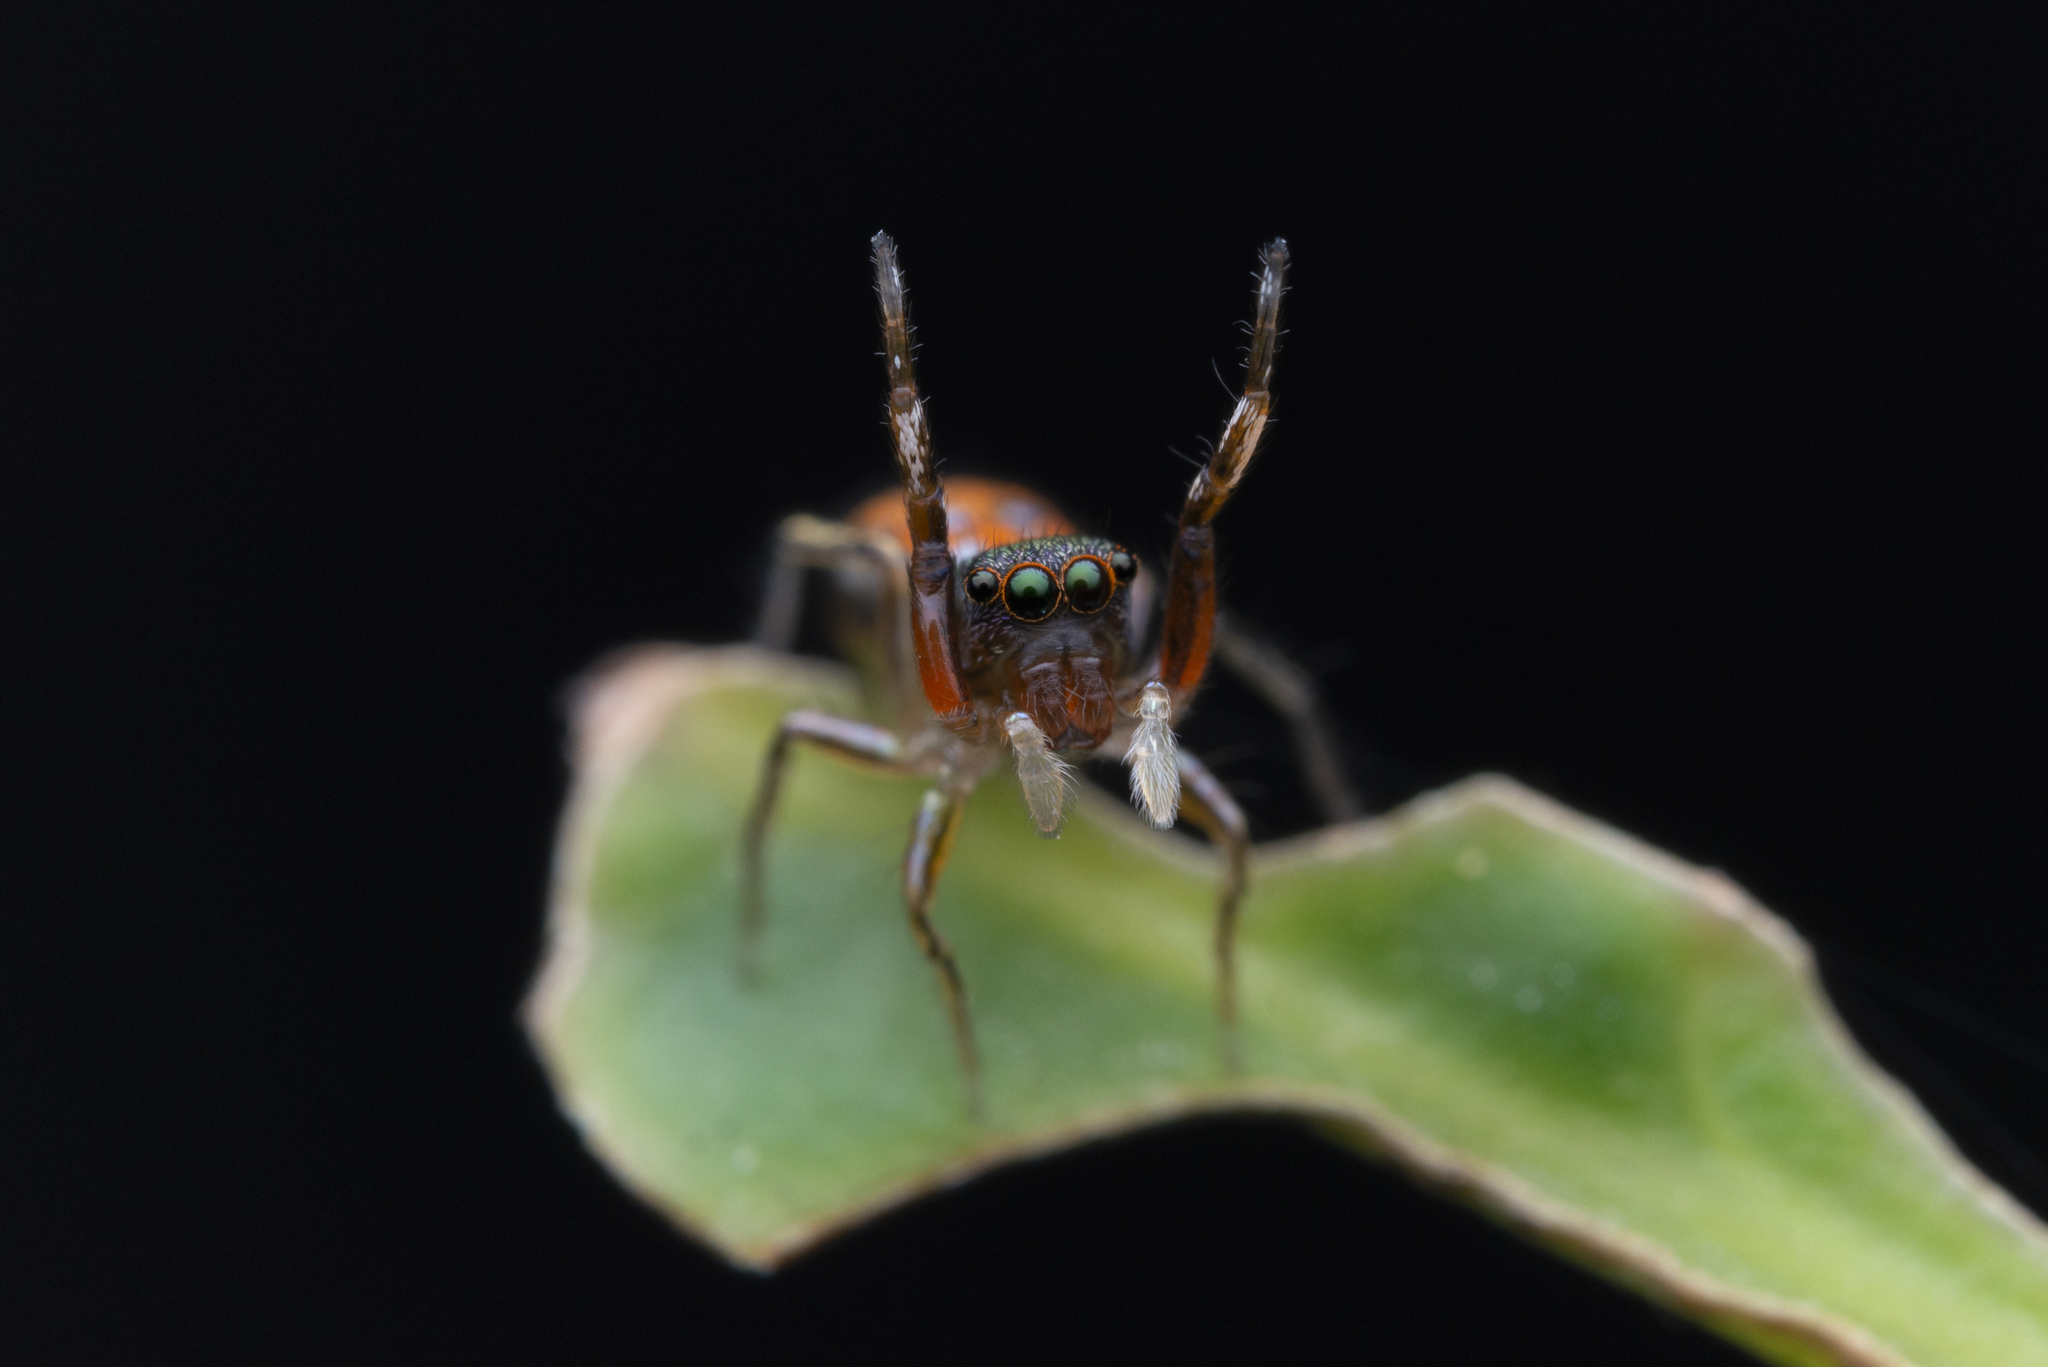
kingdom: Animalia
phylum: Arthropoda
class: Arachnida
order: Araneae
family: Salticidae
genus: Siler
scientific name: Siler collingwoodi
